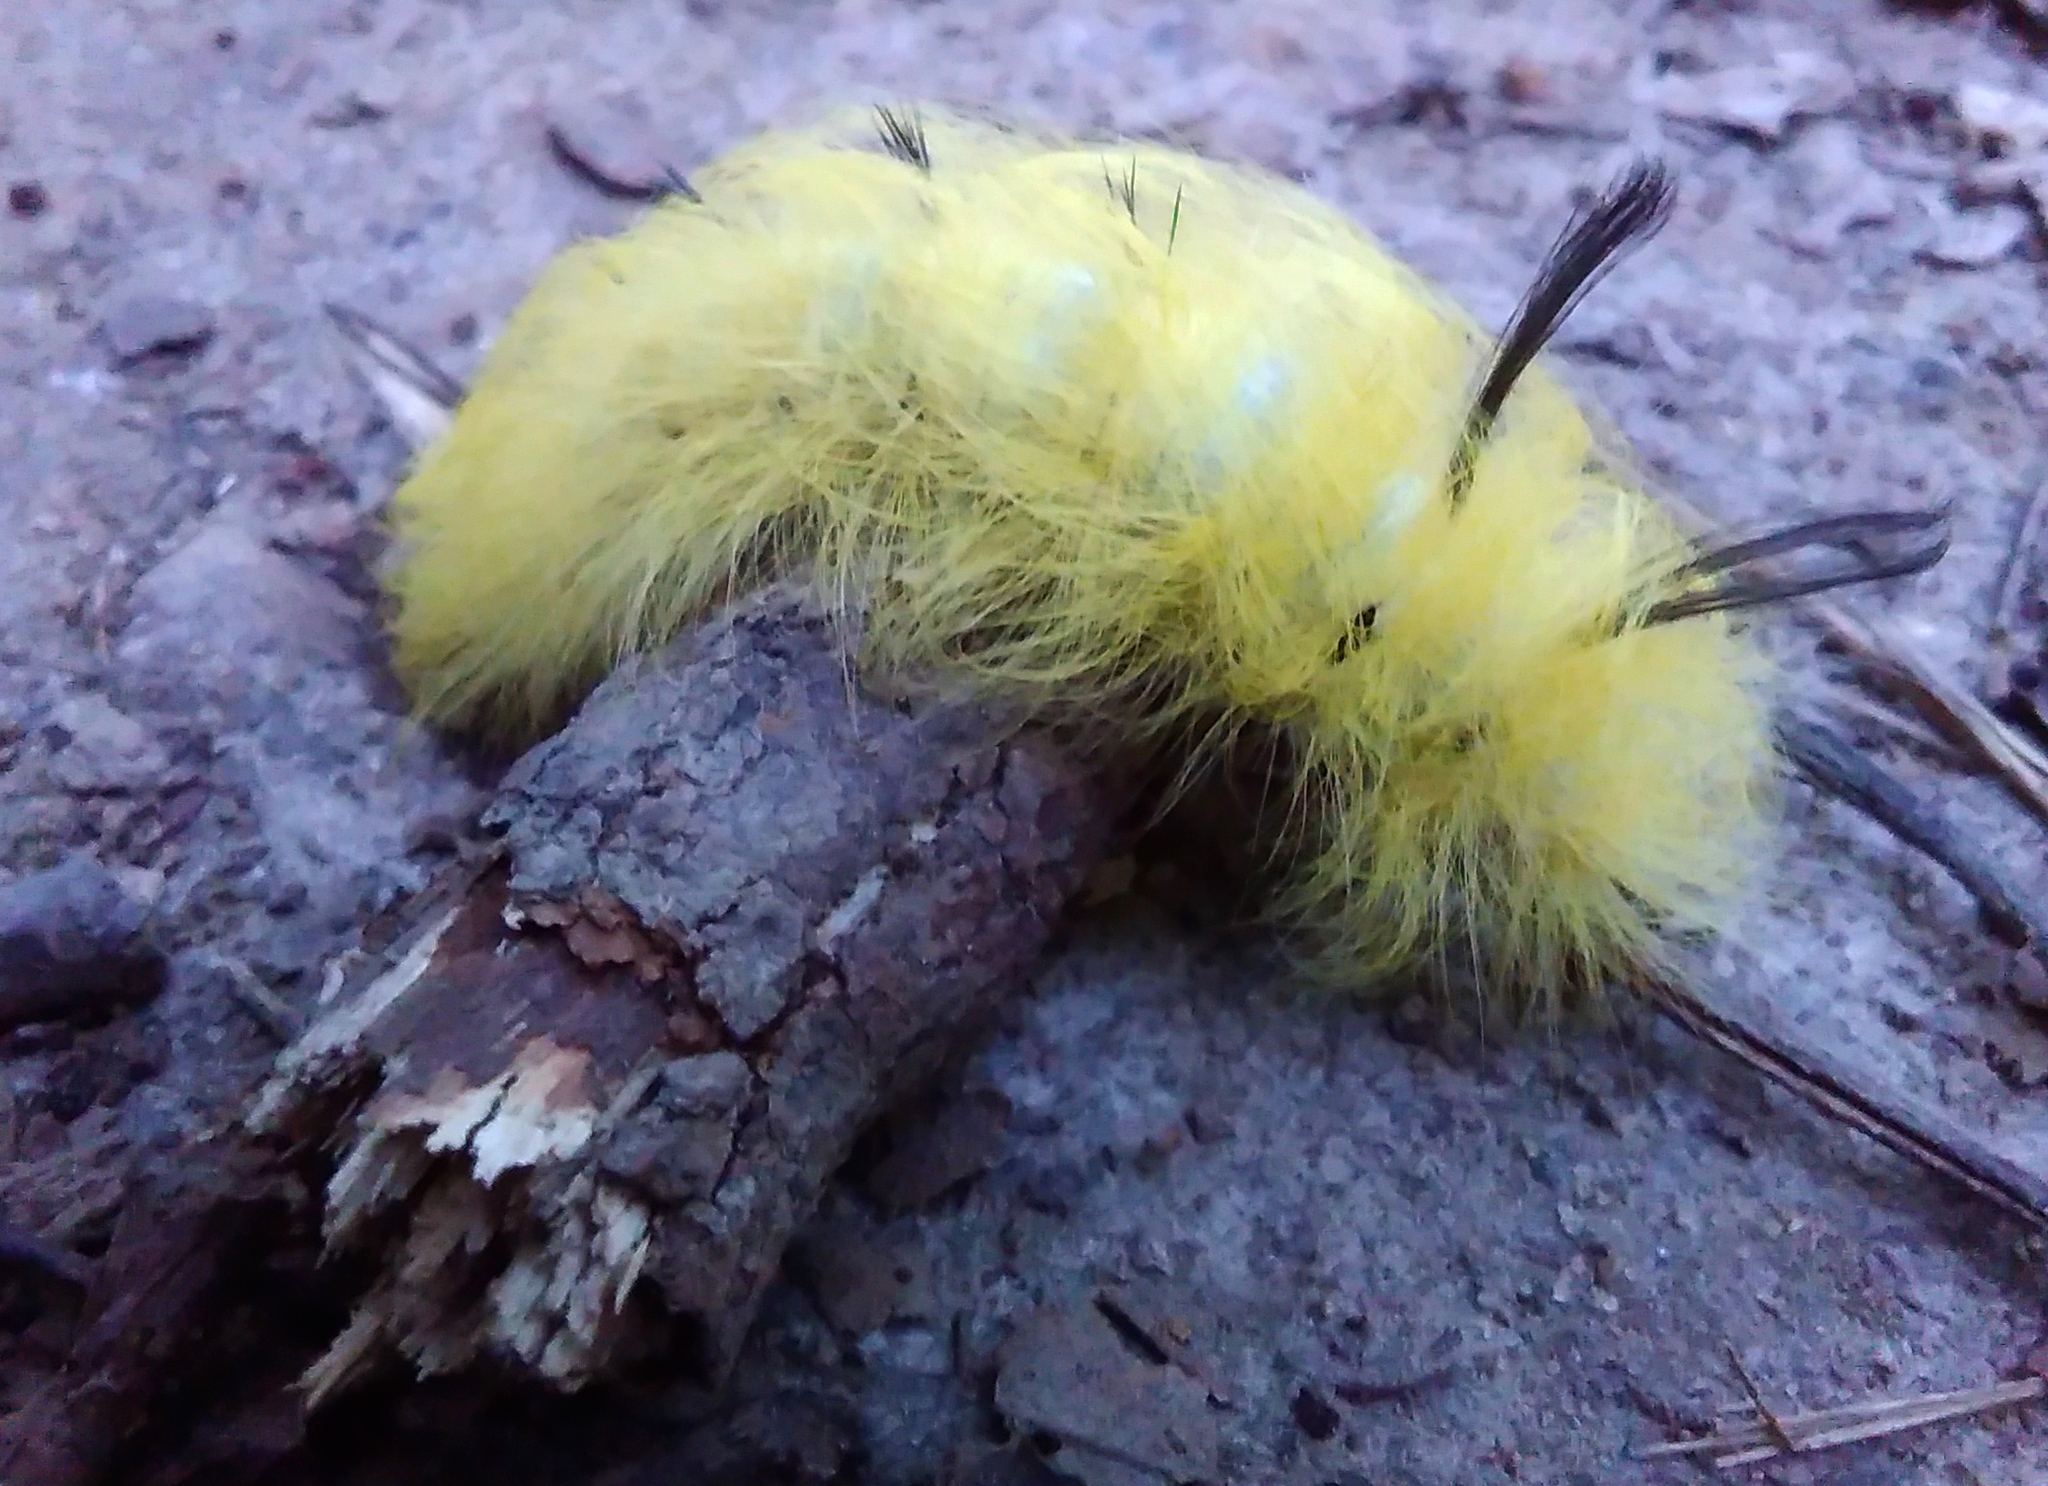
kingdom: Animalia
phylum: Arthropoda
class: Insecta
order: Lepidoptera
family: Apatelodidae
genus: Hygrochroa
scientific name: Hygrochroa Apatelodes torrefacta
